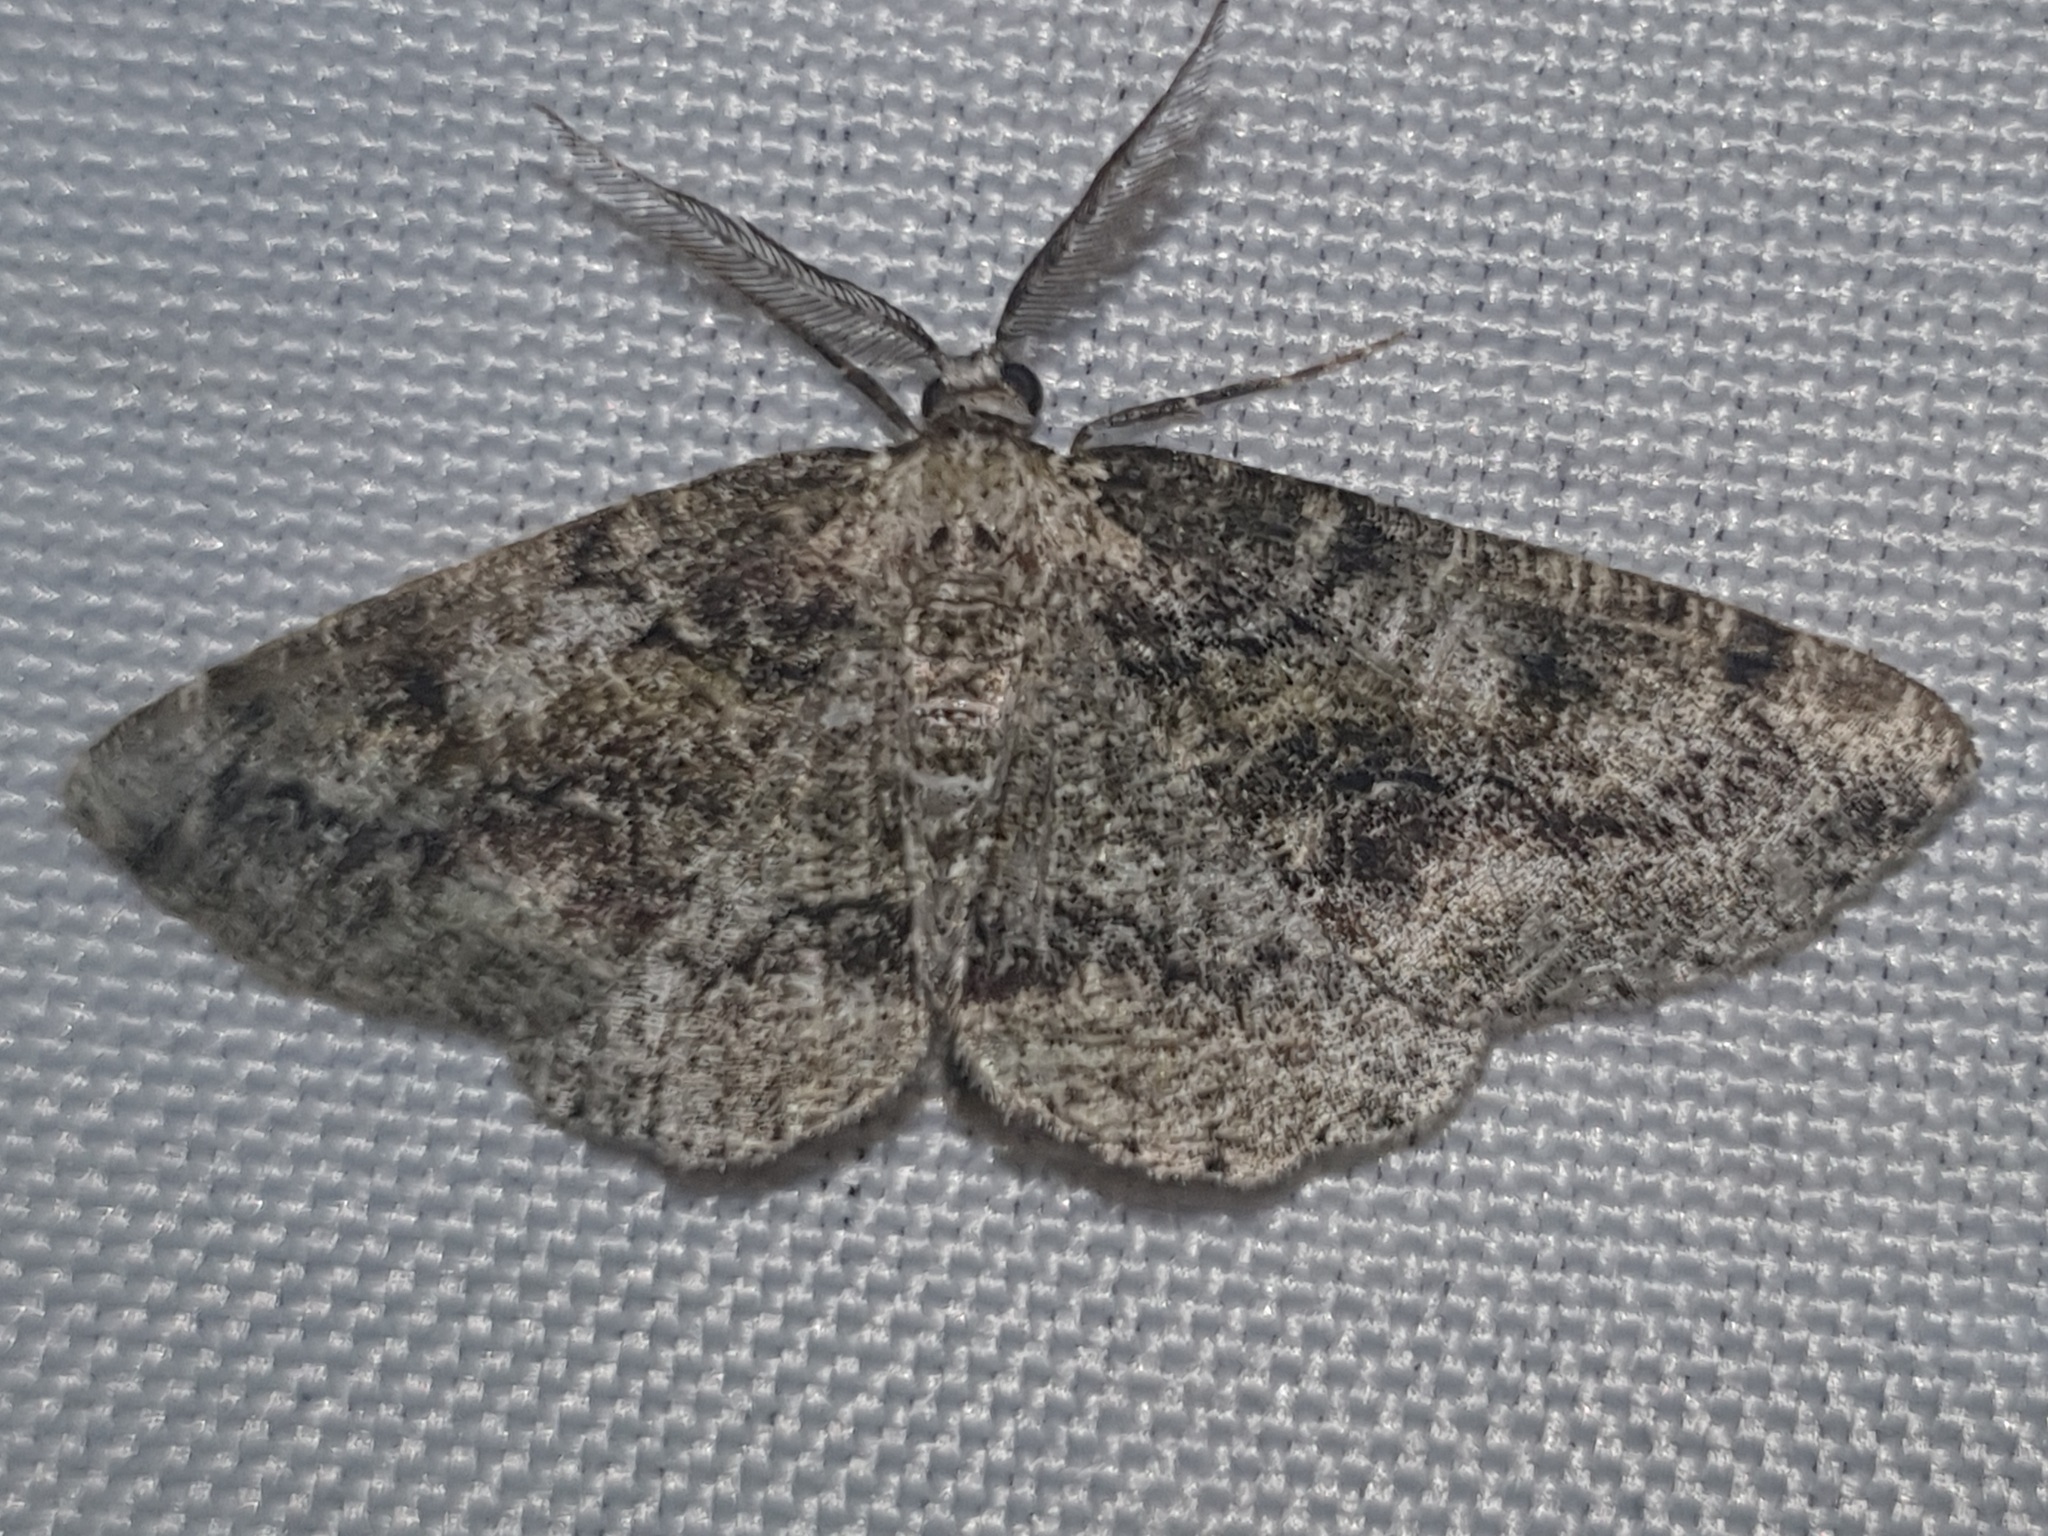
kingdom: Animalia
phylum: Arthropoda
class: Insecta
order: Lepidoptera
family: Geometridae
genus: Cleorodes
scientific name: Cleorodes lichenaria
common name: Brussels lace
